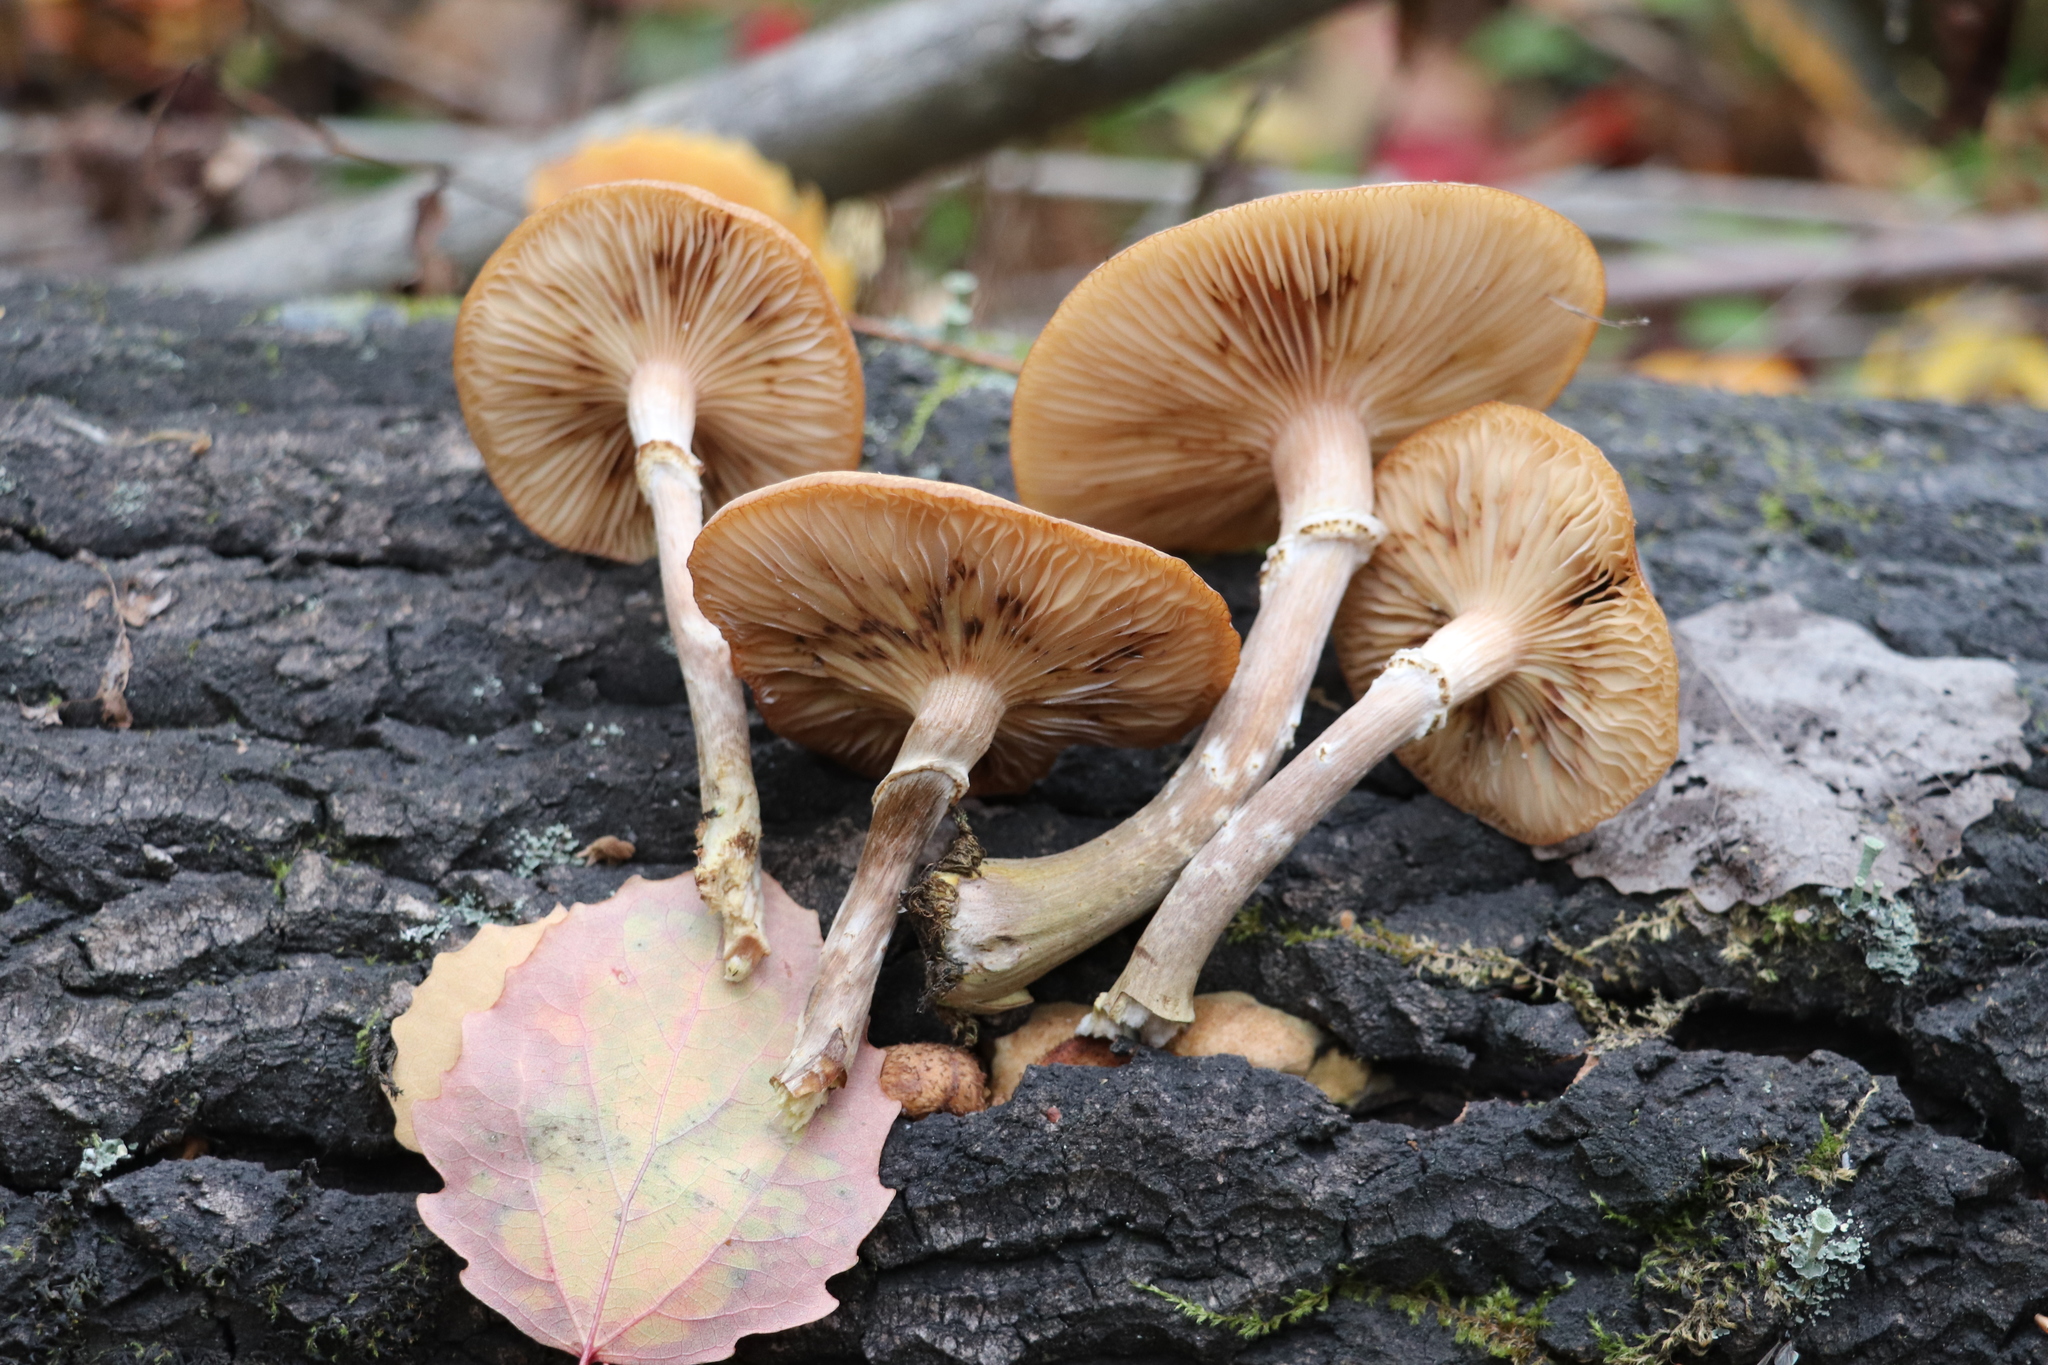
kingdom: Fungi
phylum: Basidiomycota
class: Agaricomycetes
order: Agaricales
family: Physalacriaceae
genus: Armillaria
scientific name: Armillaria mellea
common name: Honey fungus
